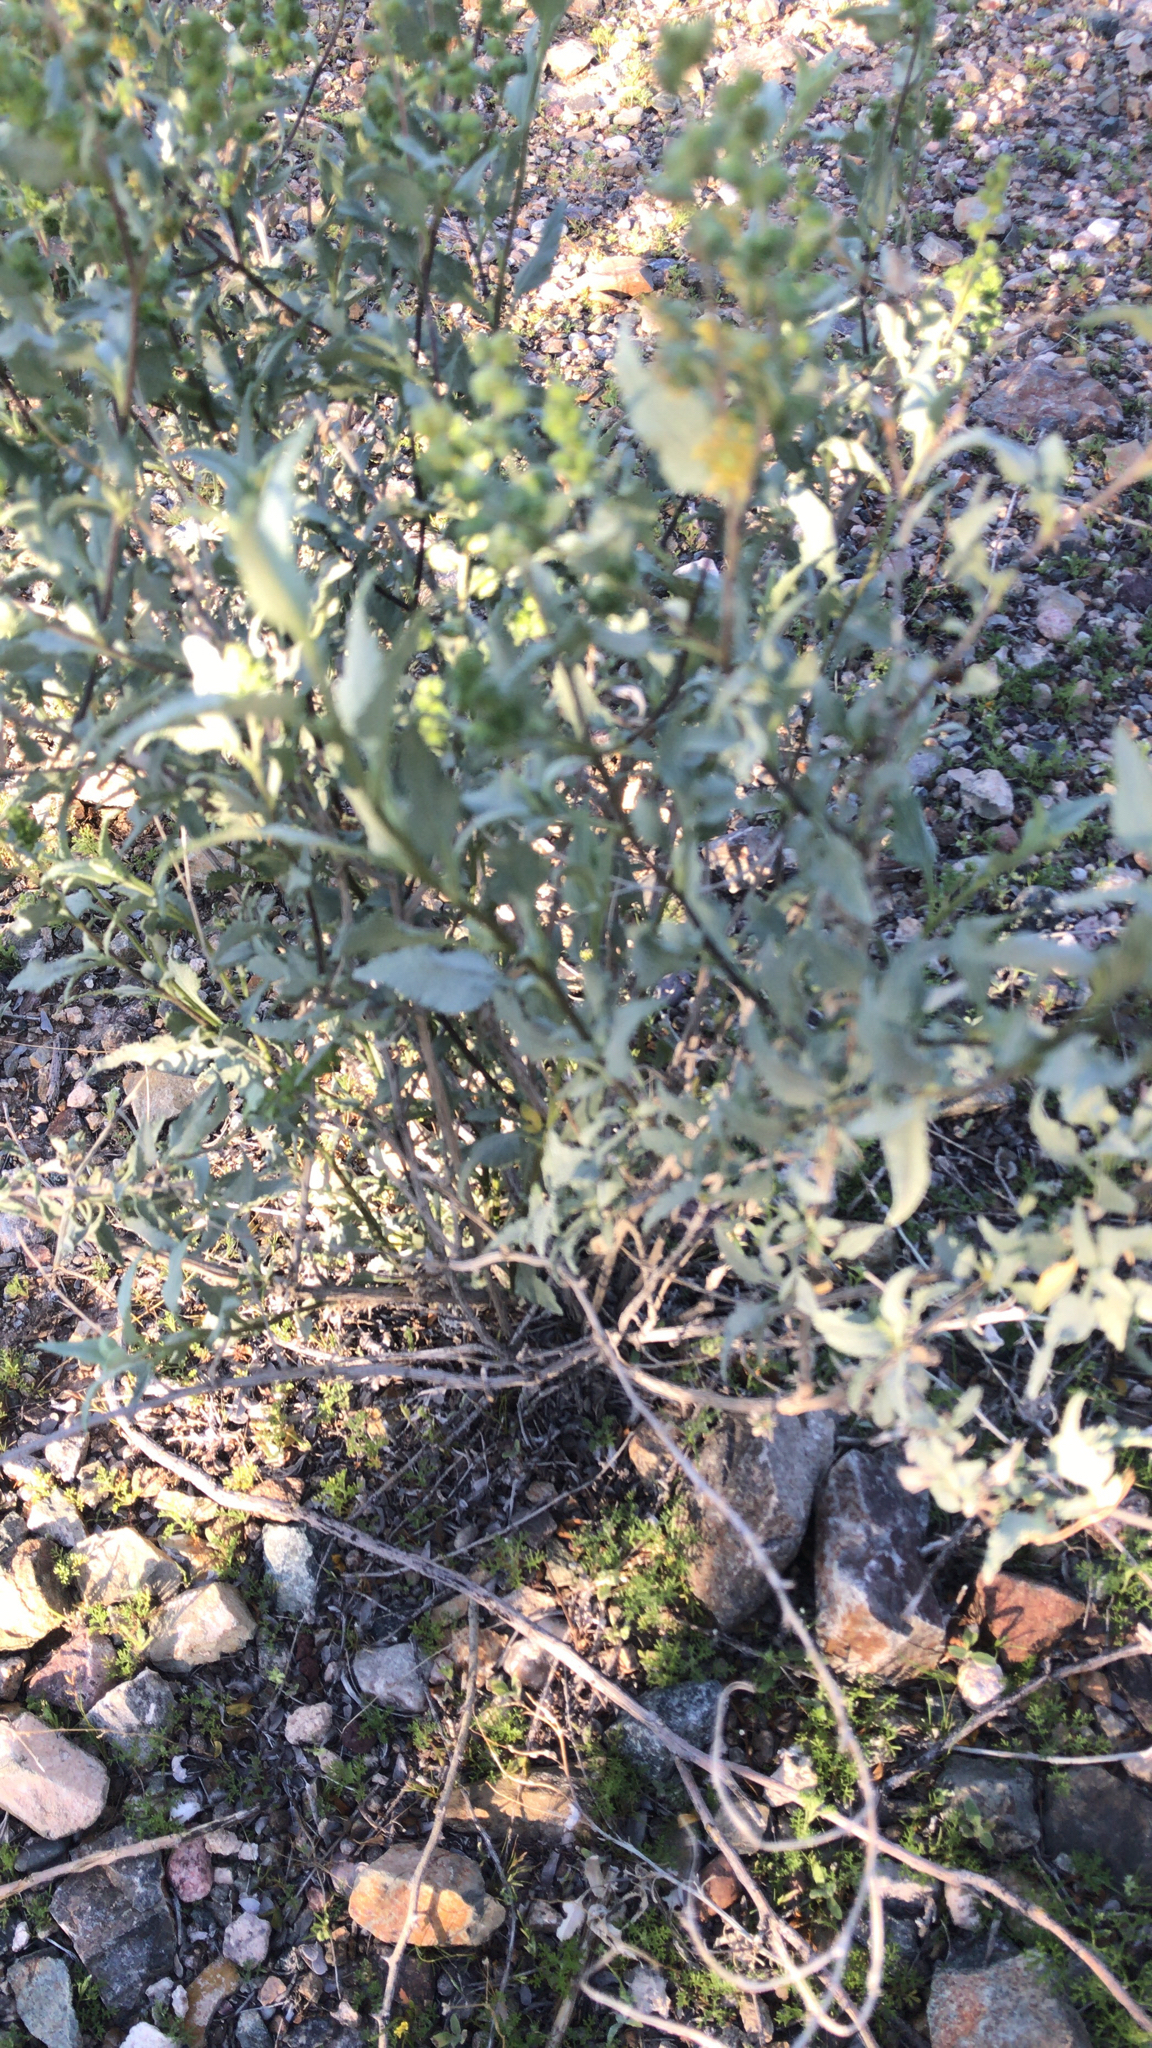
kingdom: Plantae
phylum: Tracheophyta
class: Magnoliopsida
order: Asterales
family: Asteraceae
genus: Ambrosia
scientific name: Ambrosia deltoidea
